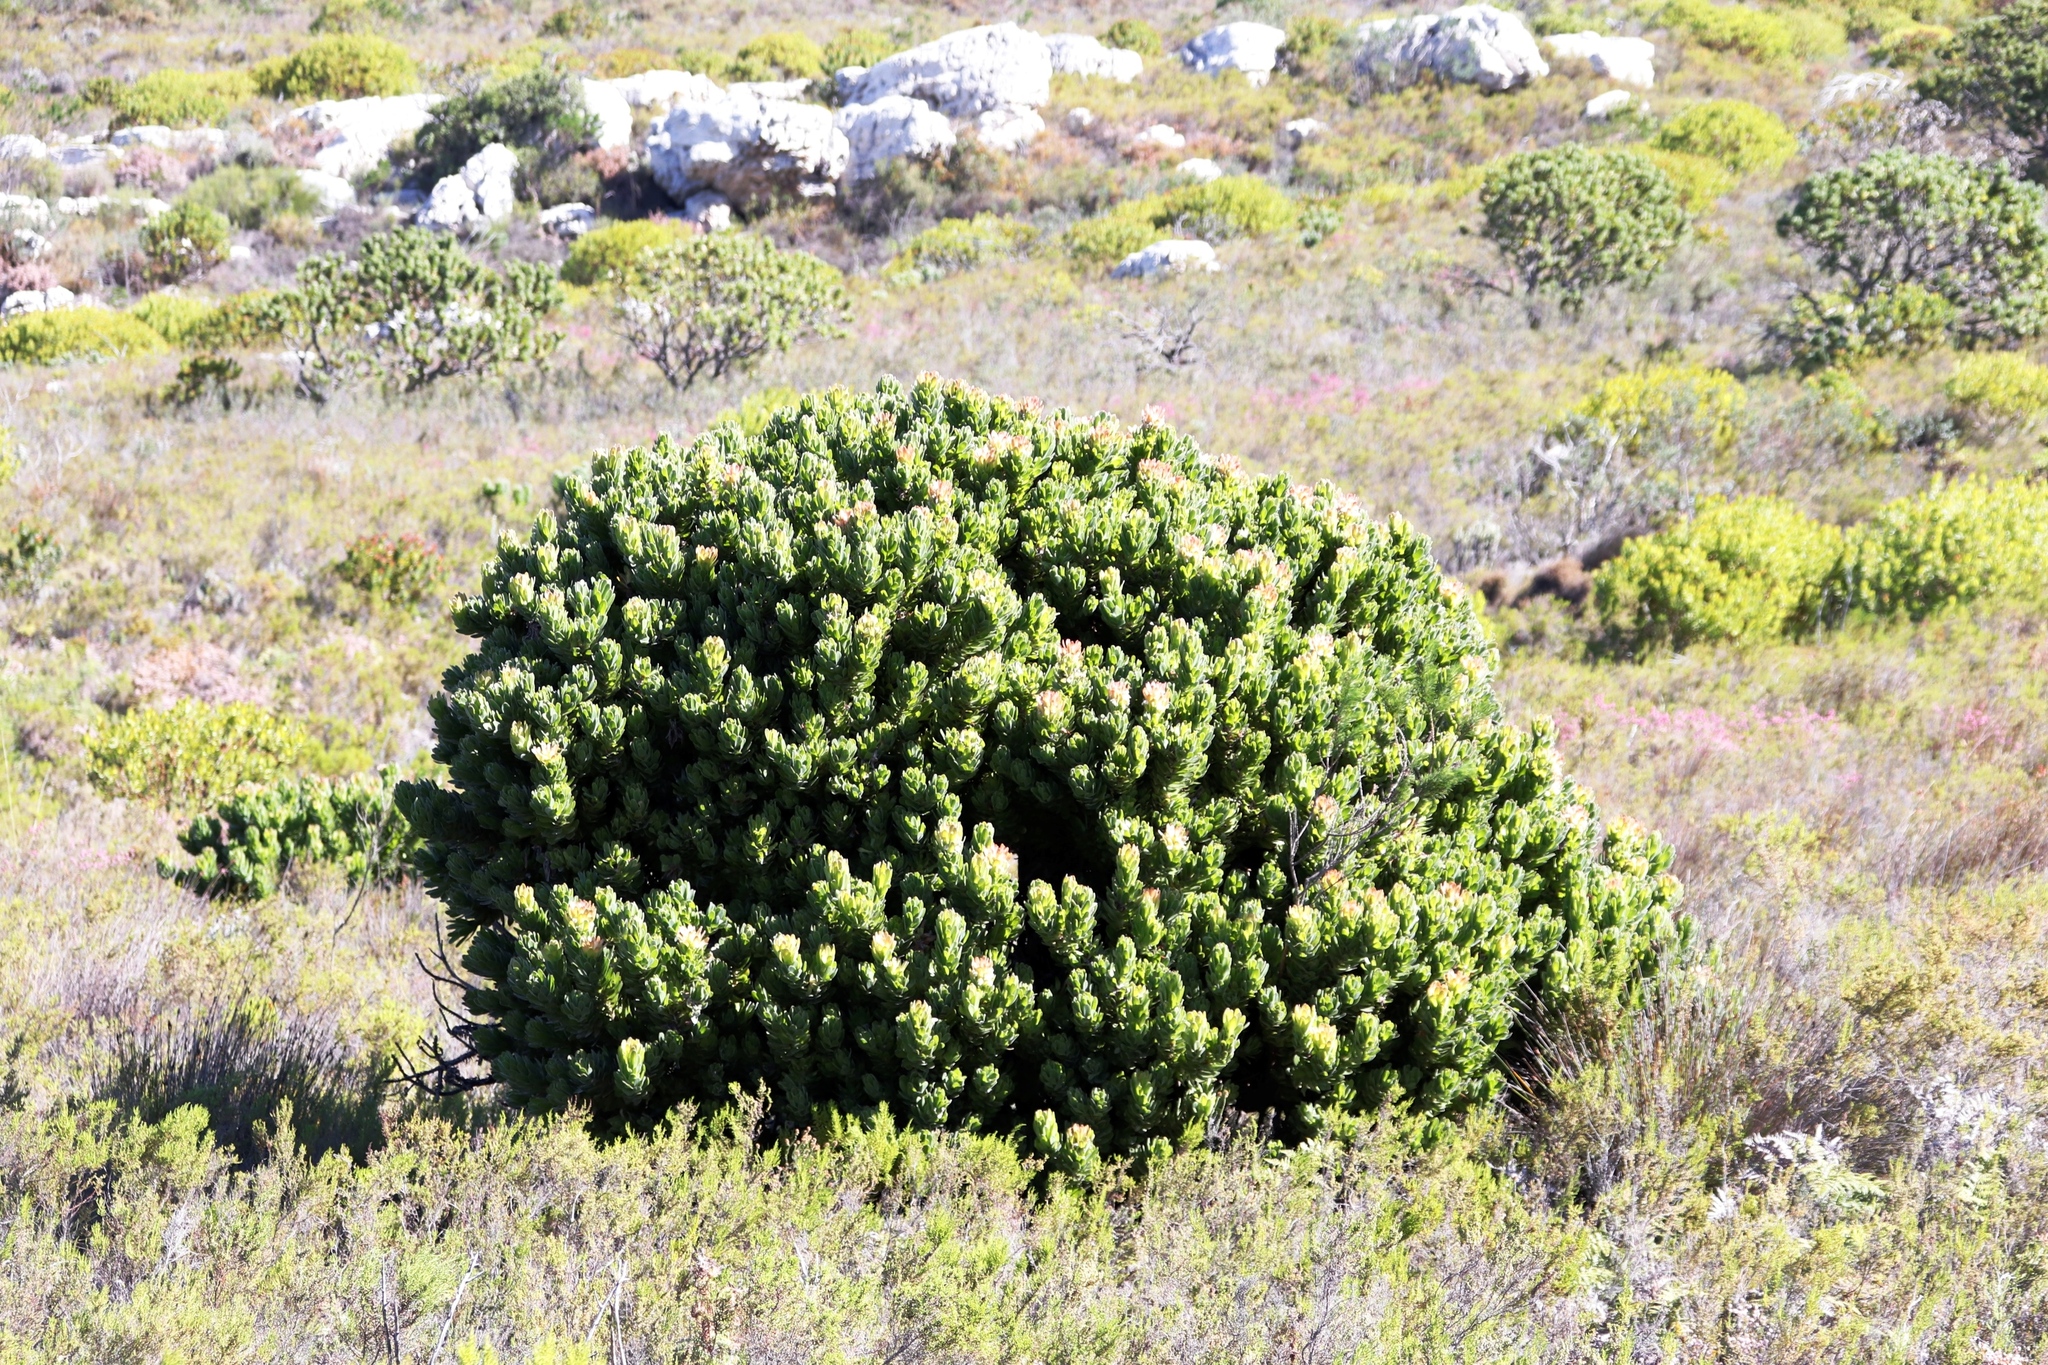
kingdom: Plantae
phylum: Tracheophyta
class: Magnoliopsida
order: Proteales
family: Proteaceae
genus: Mimetes
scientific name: Mimetes fimbriifolius
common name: Fringed bottlebrush
